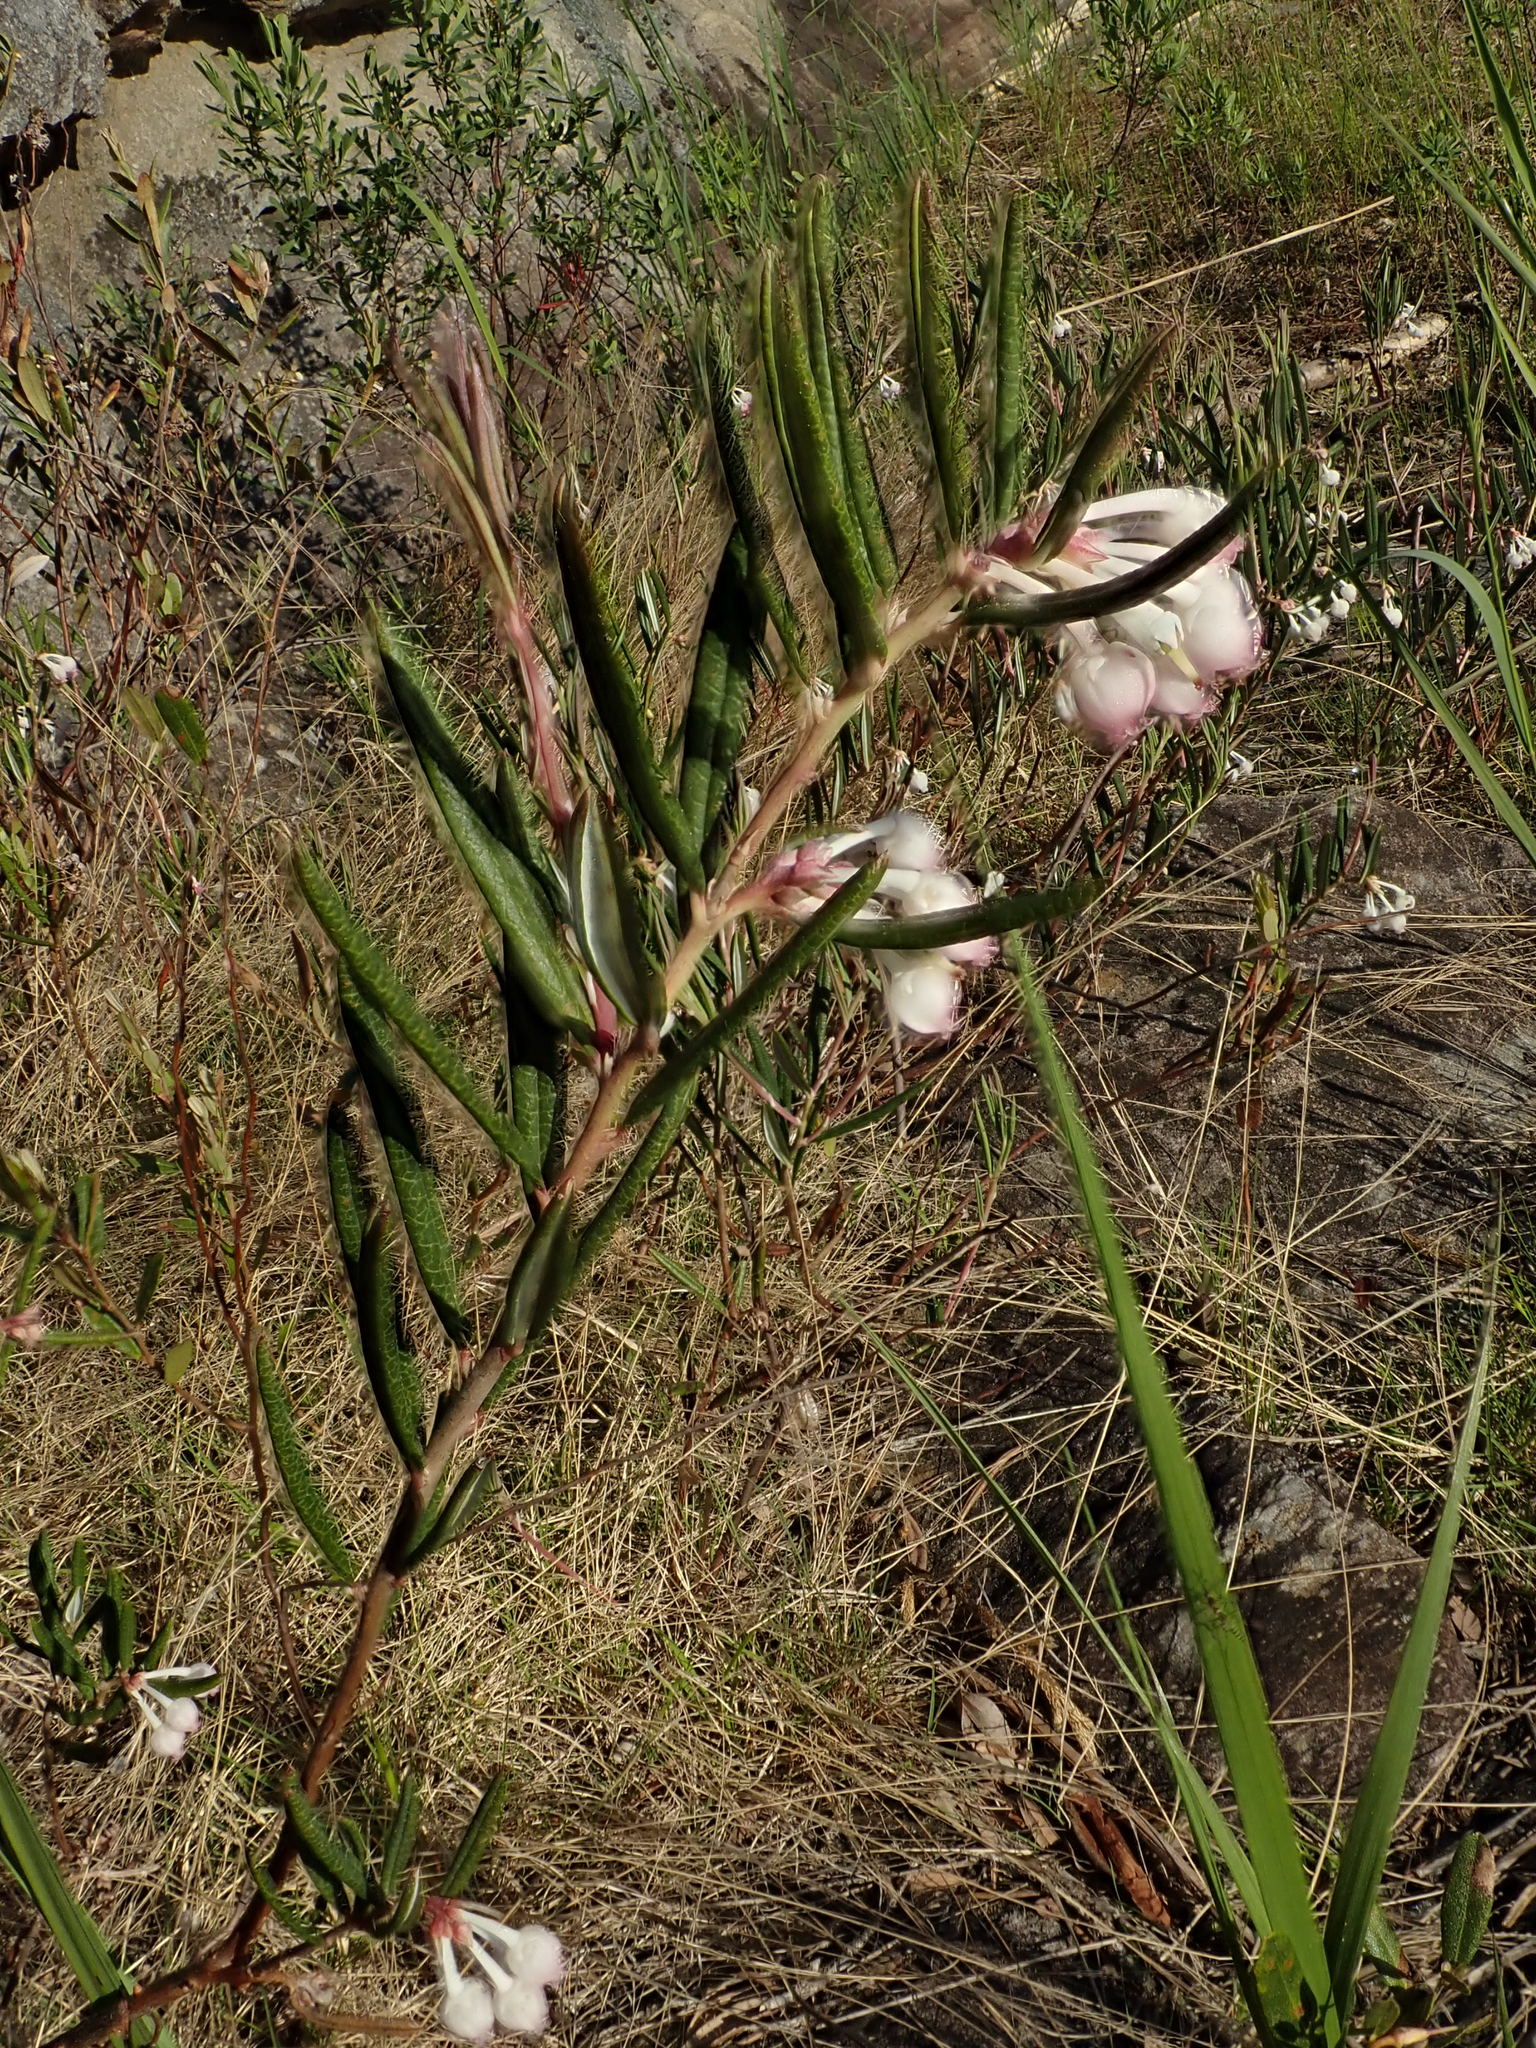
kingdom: Plantae
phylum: Tracheophyta
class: Magnoliopsida
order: Ericales
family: Ericaceae
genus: Andromeda
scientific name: Andromeda polifolia
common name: Bog-rosemary
